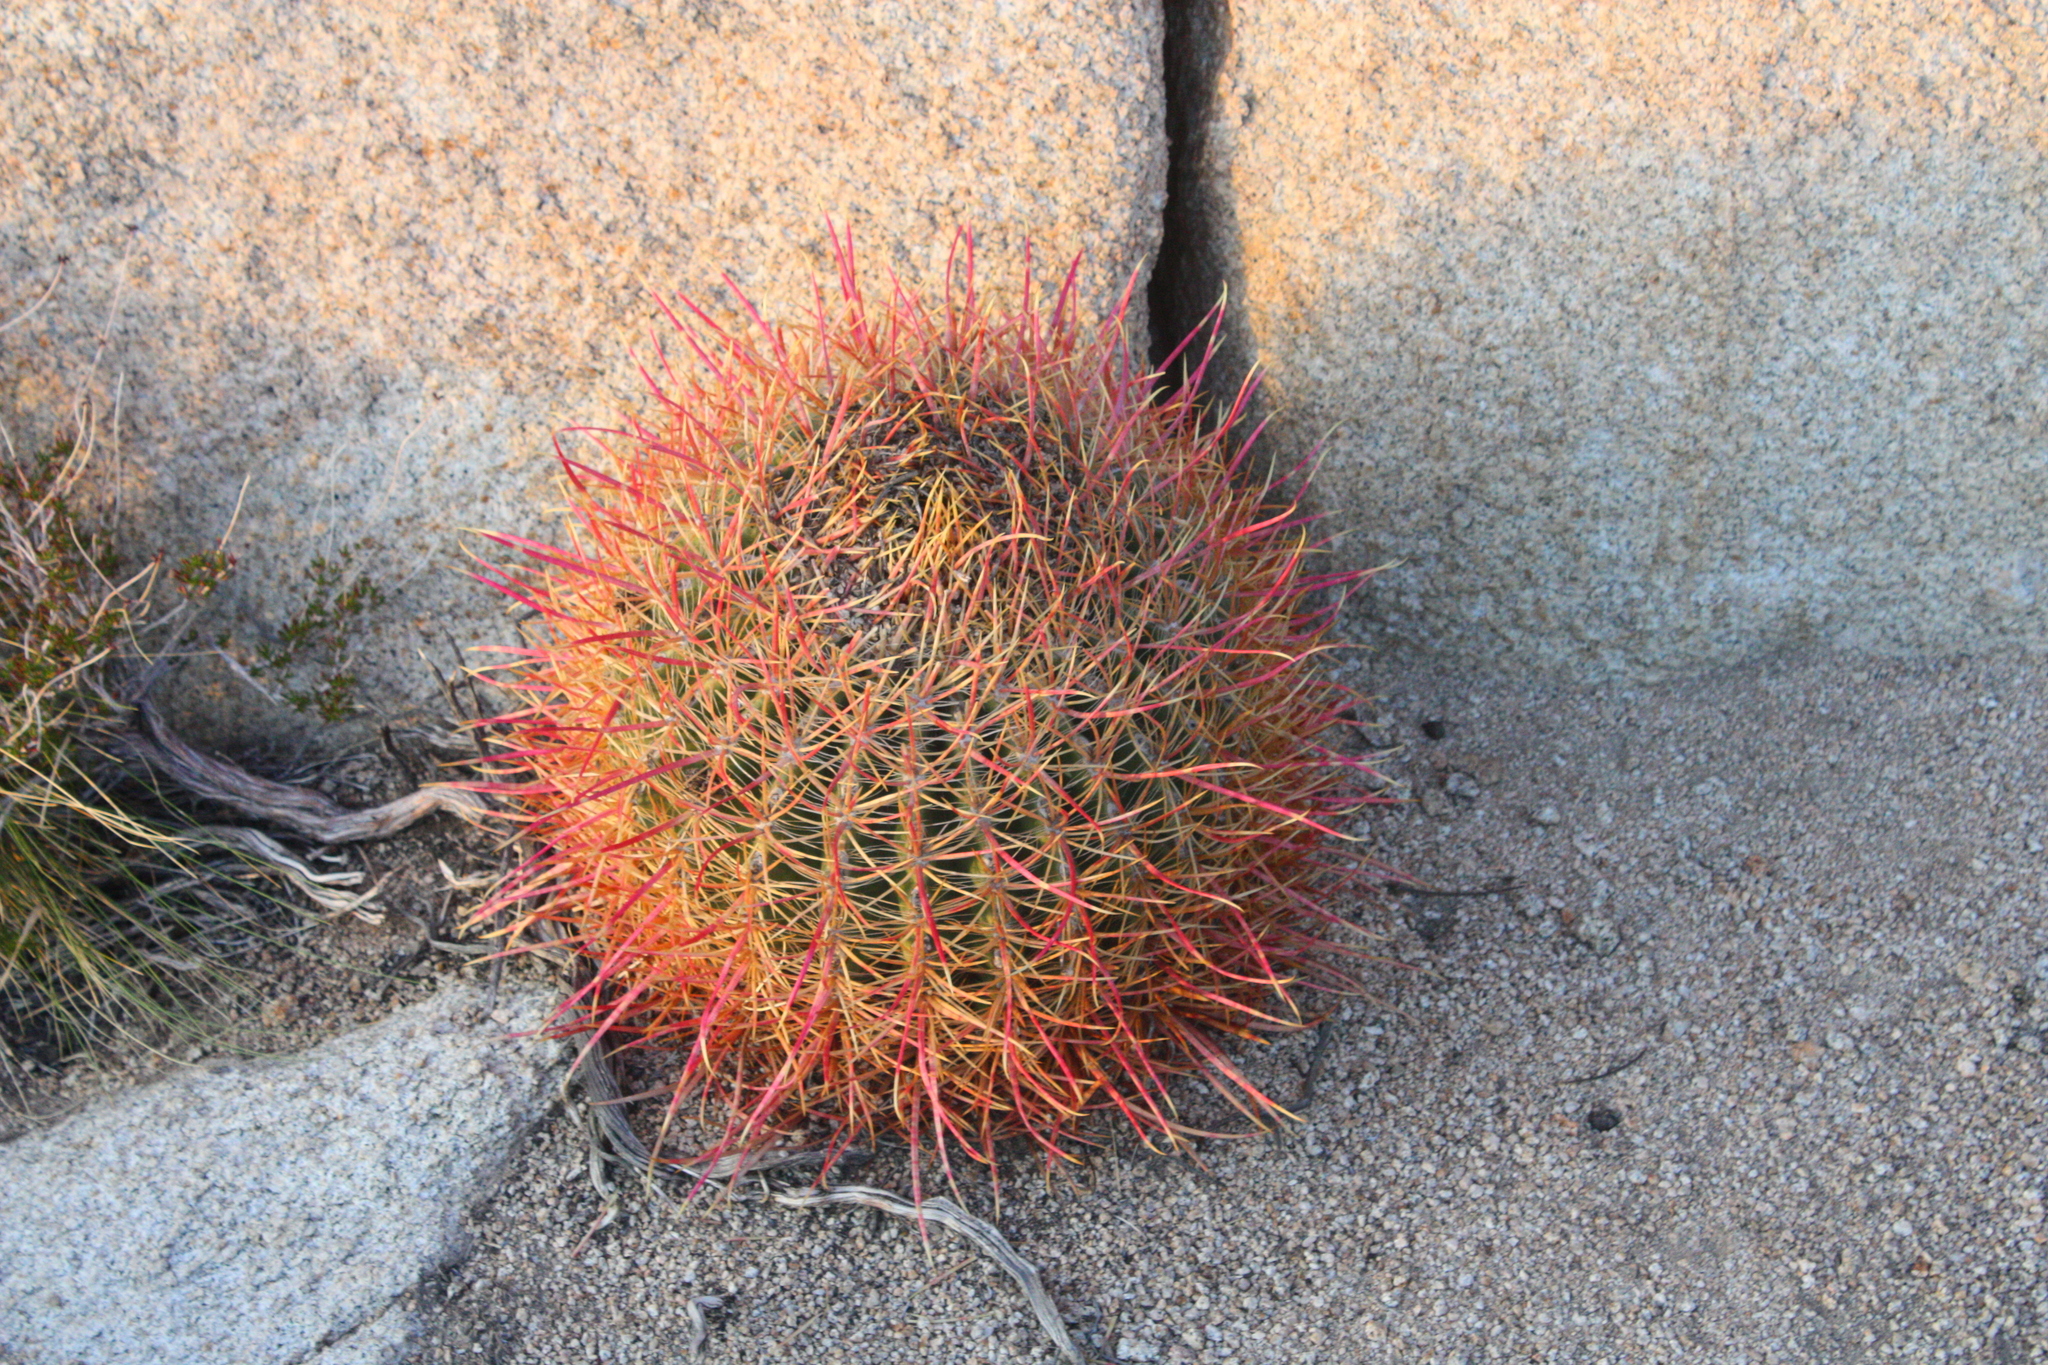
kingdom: Plantae
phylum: Tracheophyta
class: Magnoliopsida
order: Caryophyllales
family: Cactaceae
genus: Ferocactus
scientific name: Ferocactus cylindraceus
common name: California barrel cactus
